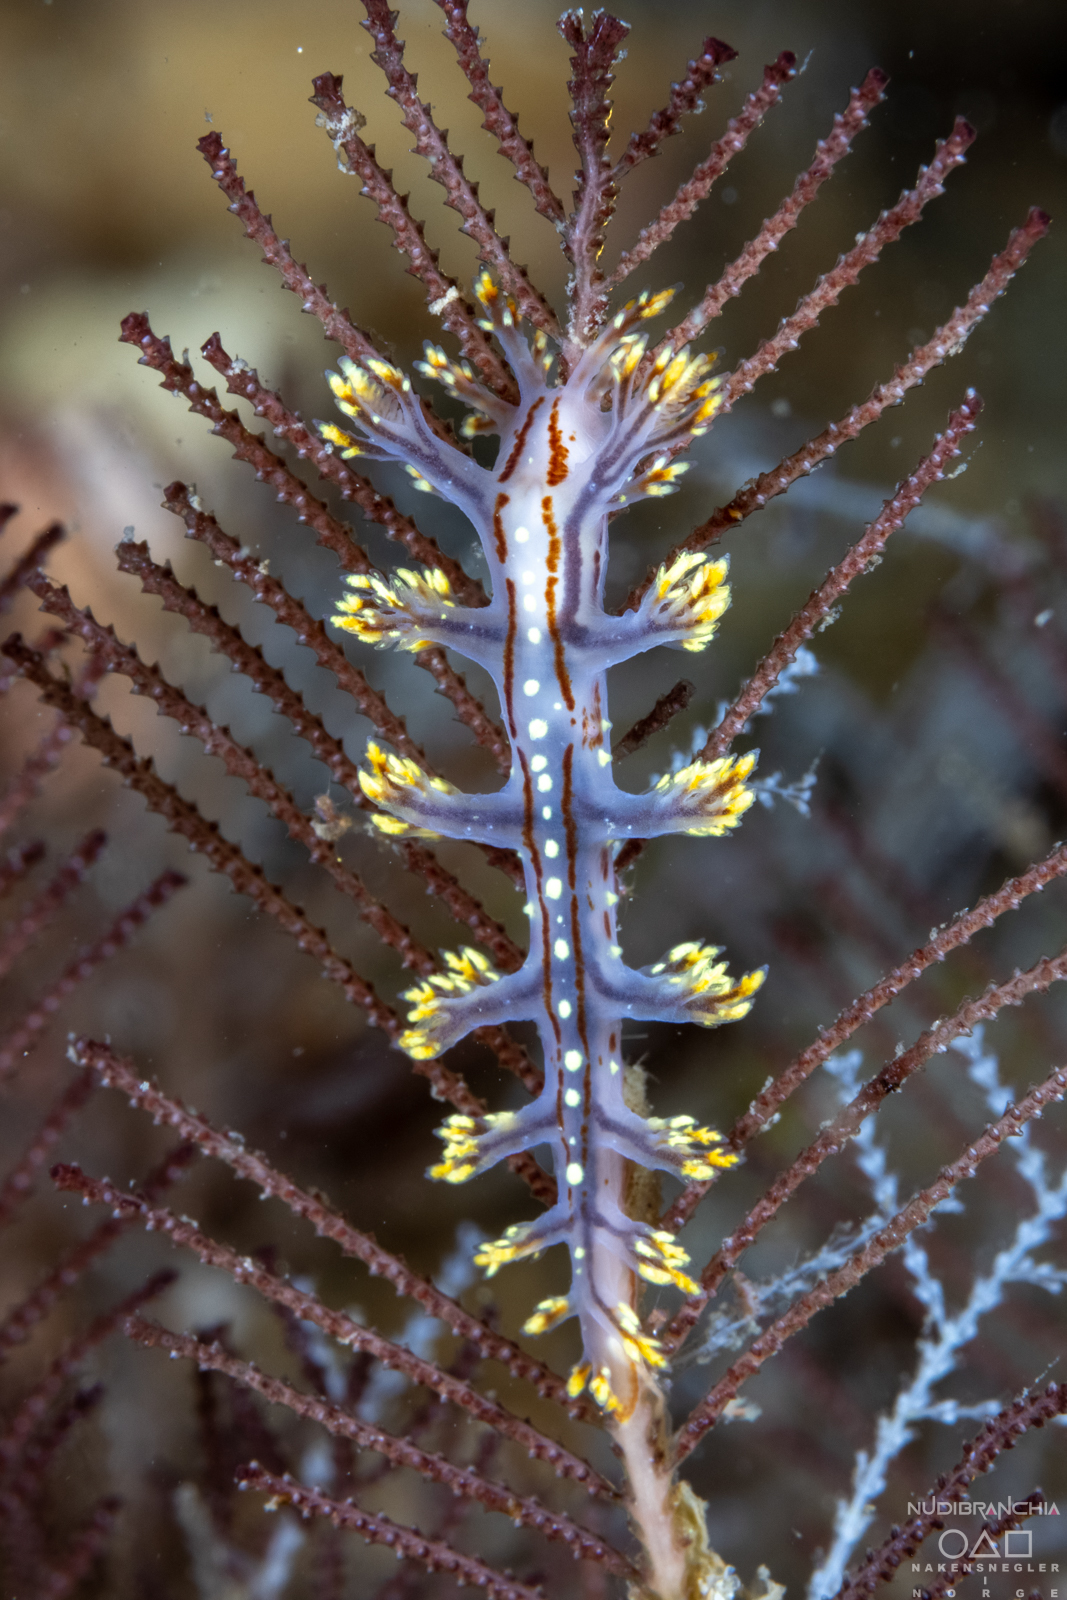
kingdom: Animalia
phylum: Mollusca
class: Gastropoda
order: Nudibranchia
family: Dendronotidae
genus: Dendronotus
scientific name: Dendronotus yrjargul
